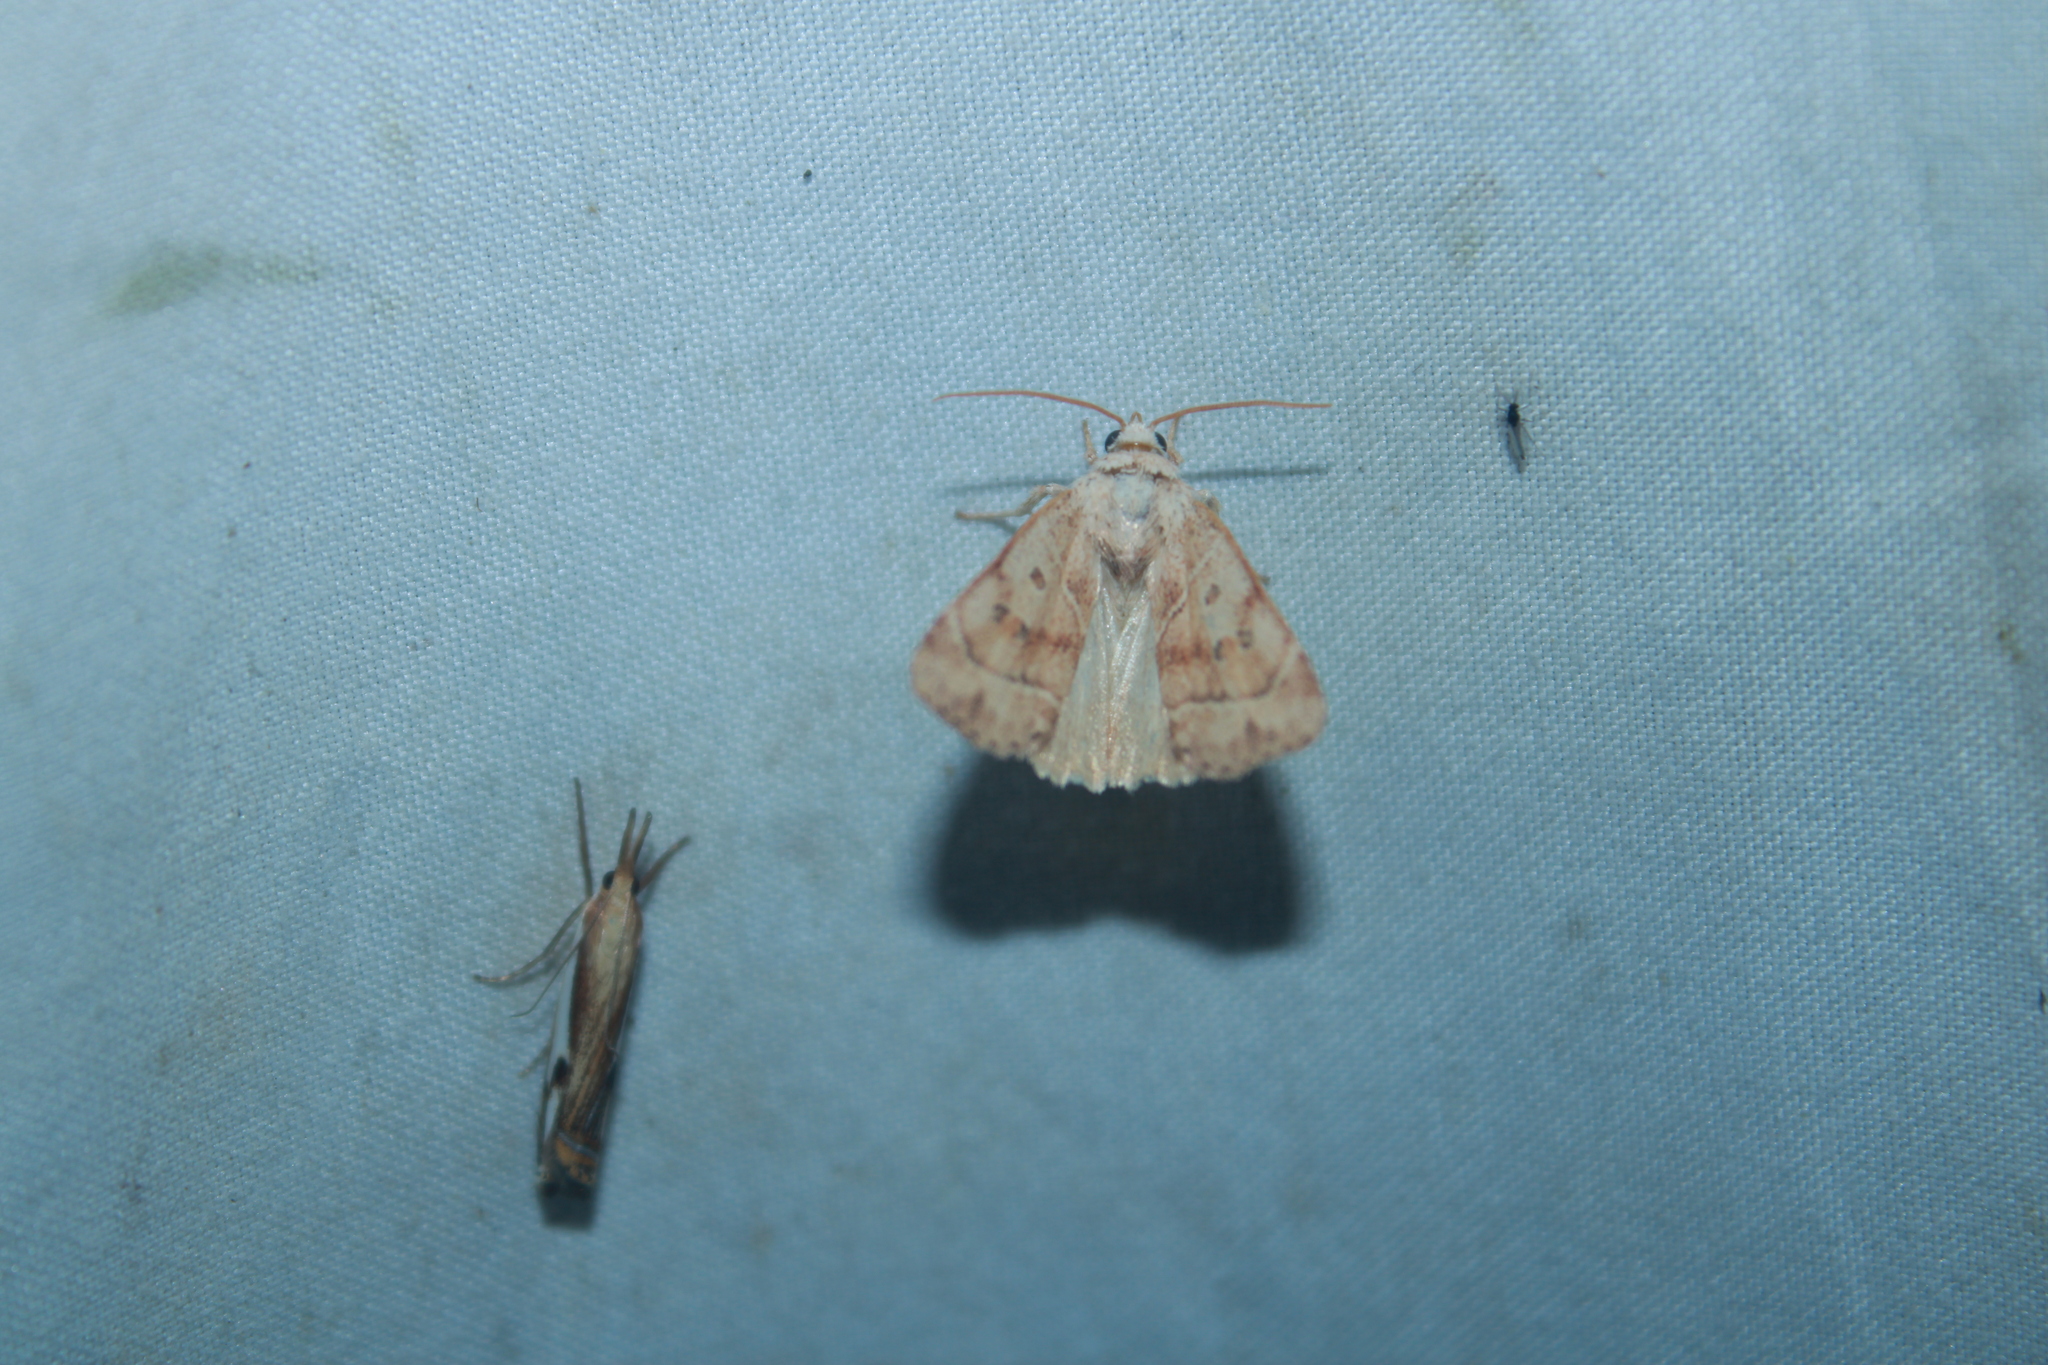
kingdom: Animalia
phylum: Arthropoda
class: Insecta
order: Lepidoptera
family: Noctuidae
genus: Cosmia
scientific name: Cosmia calami
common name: American dun-bar moth
